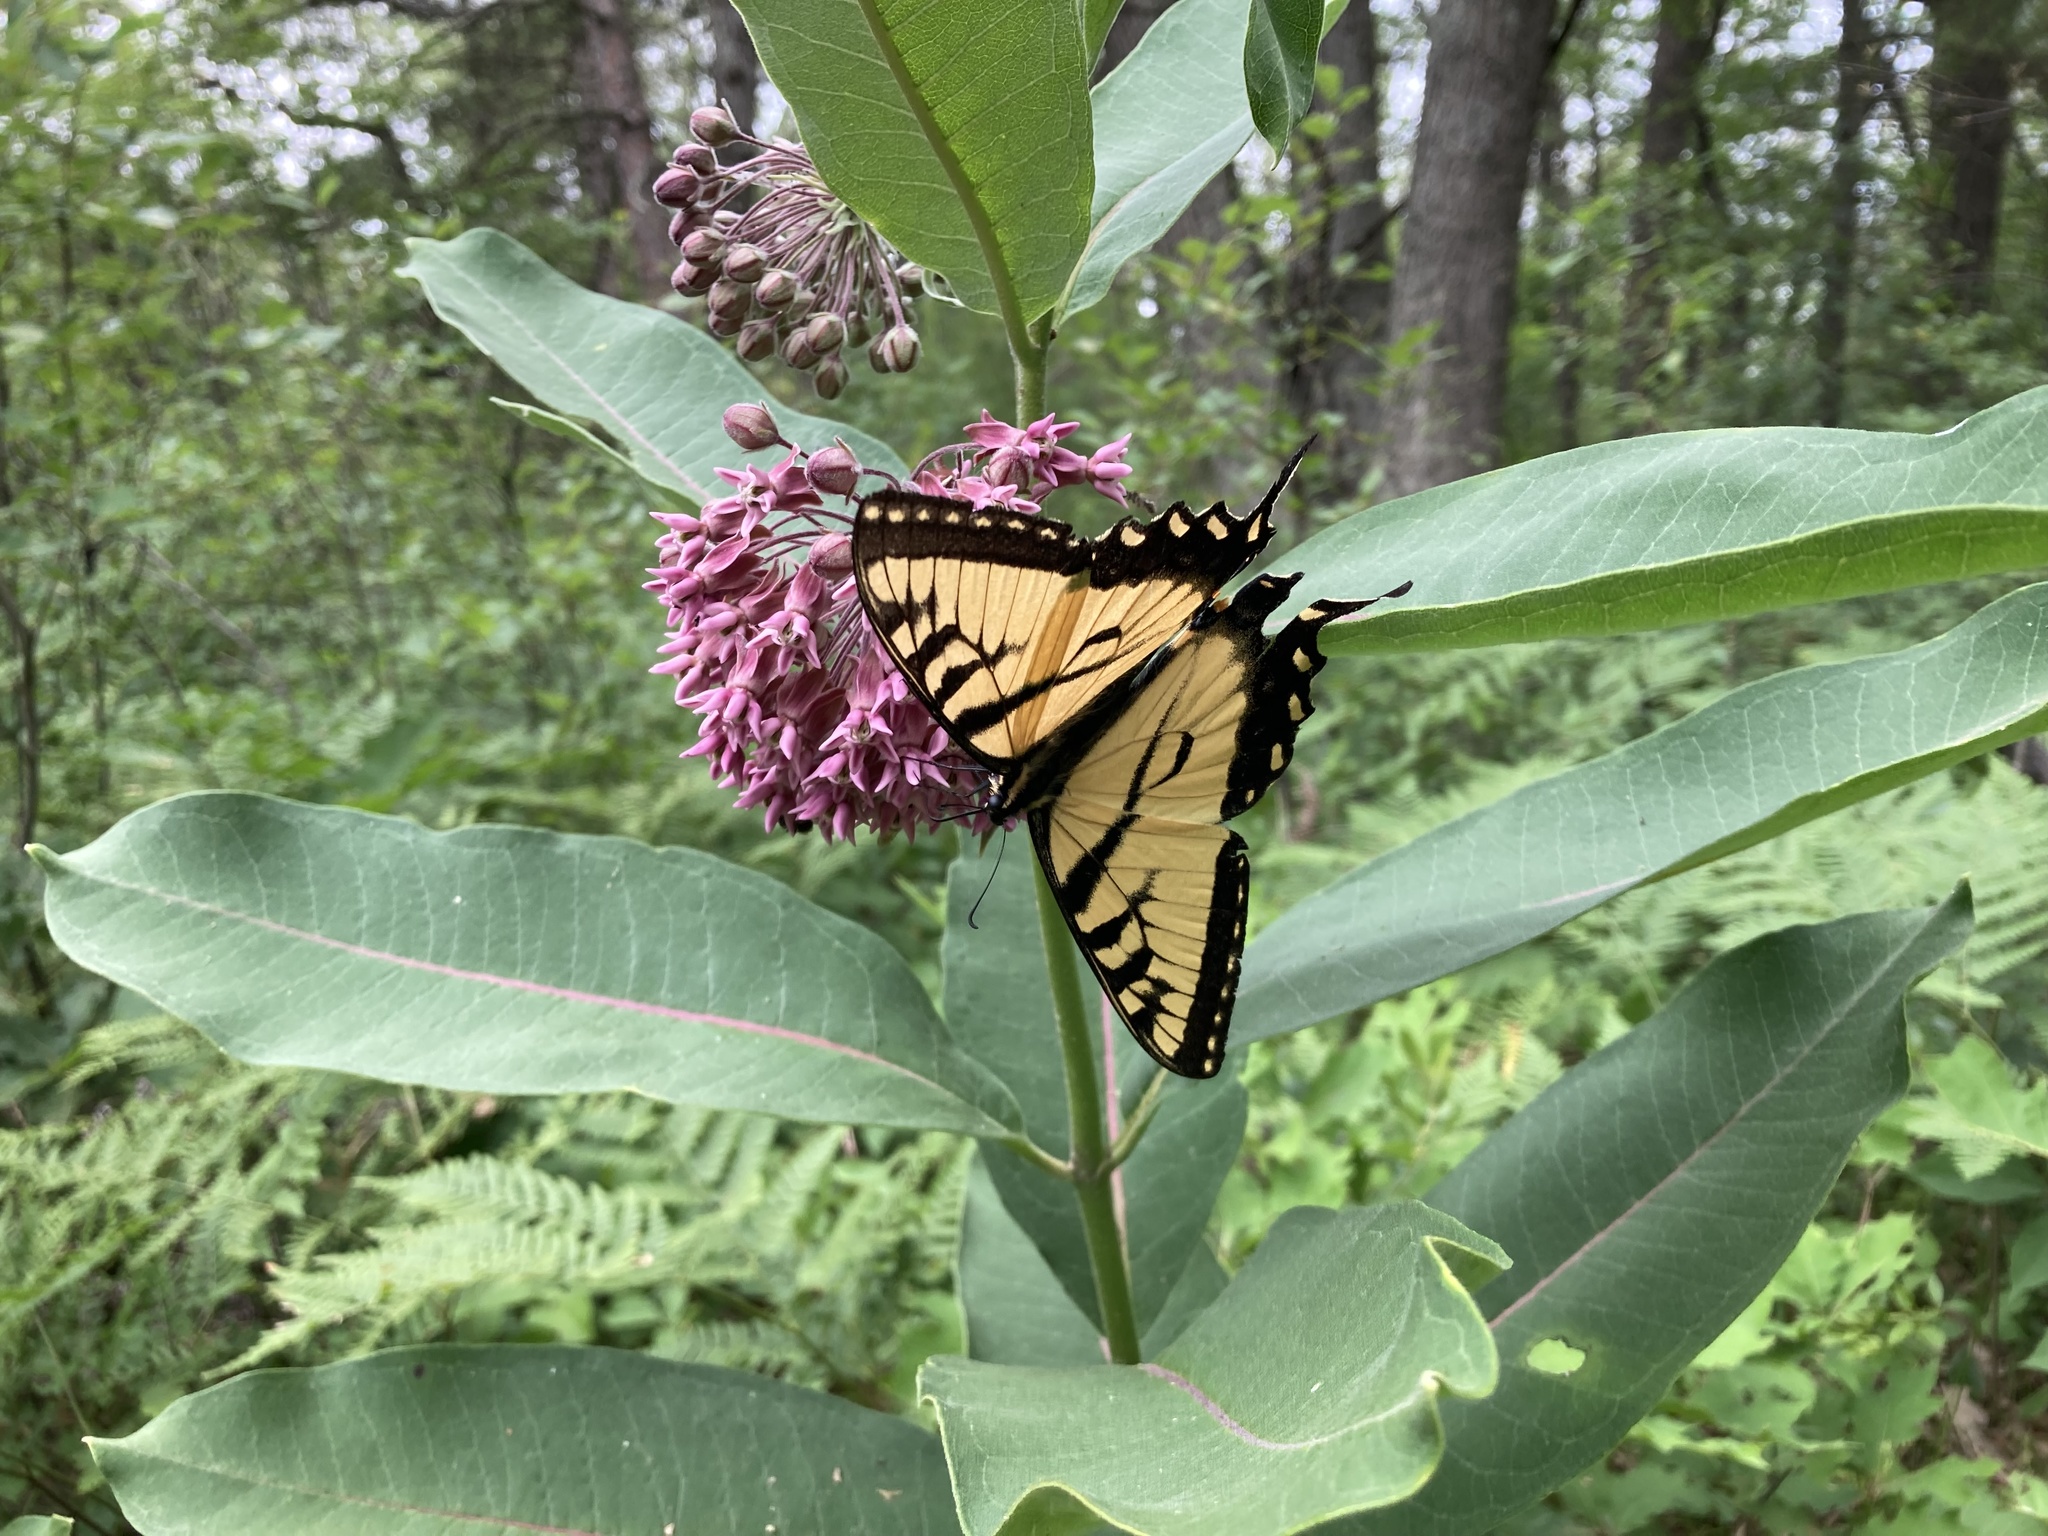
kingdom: Animalia
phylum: Arthropoda
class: Insecta
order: Lepidoptera
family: Papilionidae
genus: Papilio
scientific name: Papilio glaucus
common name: Tiger swallowtail
